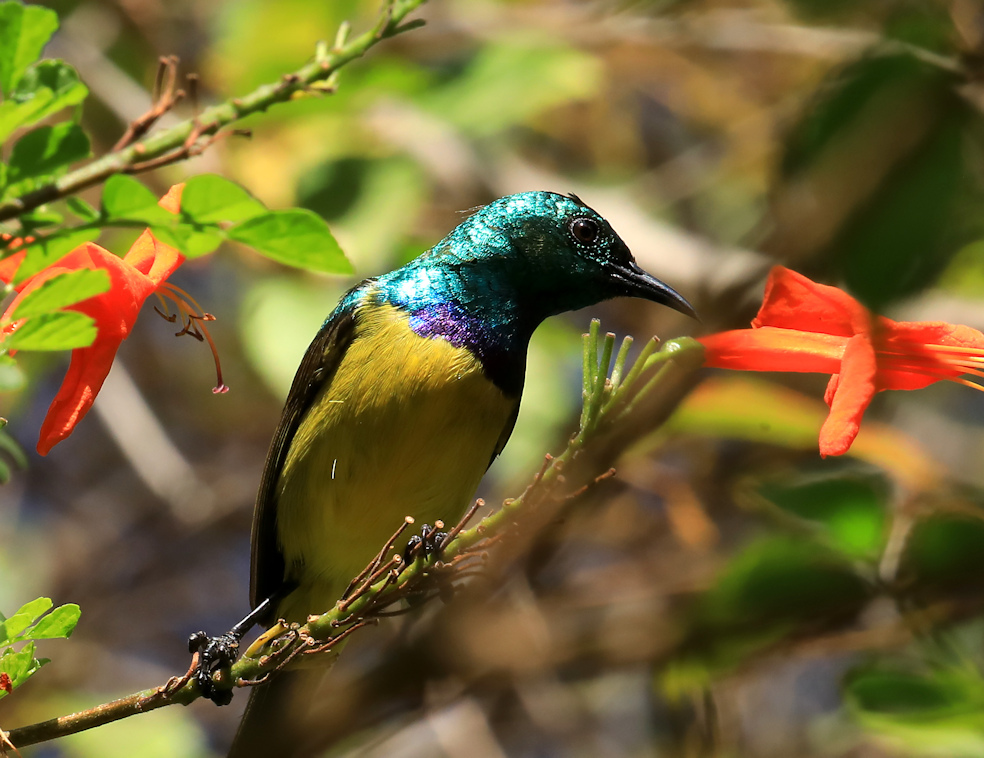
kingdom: Animalia
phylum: Chordata
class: Aves
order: Passeriformes
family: Nectariniidae
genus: Hedydipna
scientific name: Hedydipna collaris
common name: Collared sunbird
